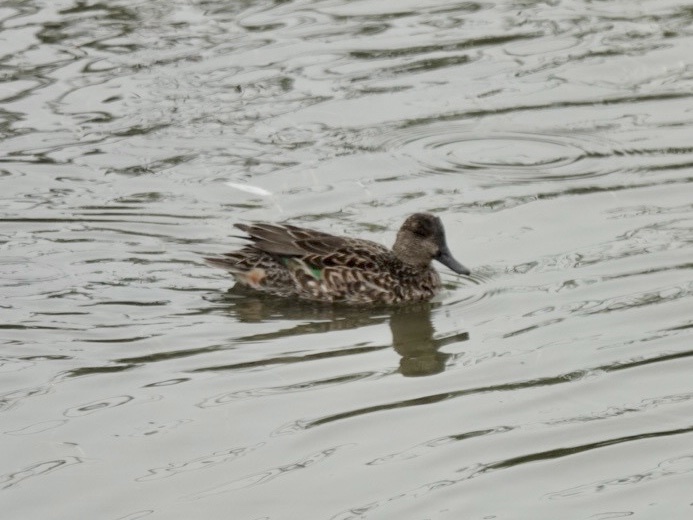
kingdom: Animalia
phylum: Chordata
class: Aves
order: Anseriformes
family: Anatidae
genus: Anas
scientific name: Anas crecca
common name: Eurasian teal
